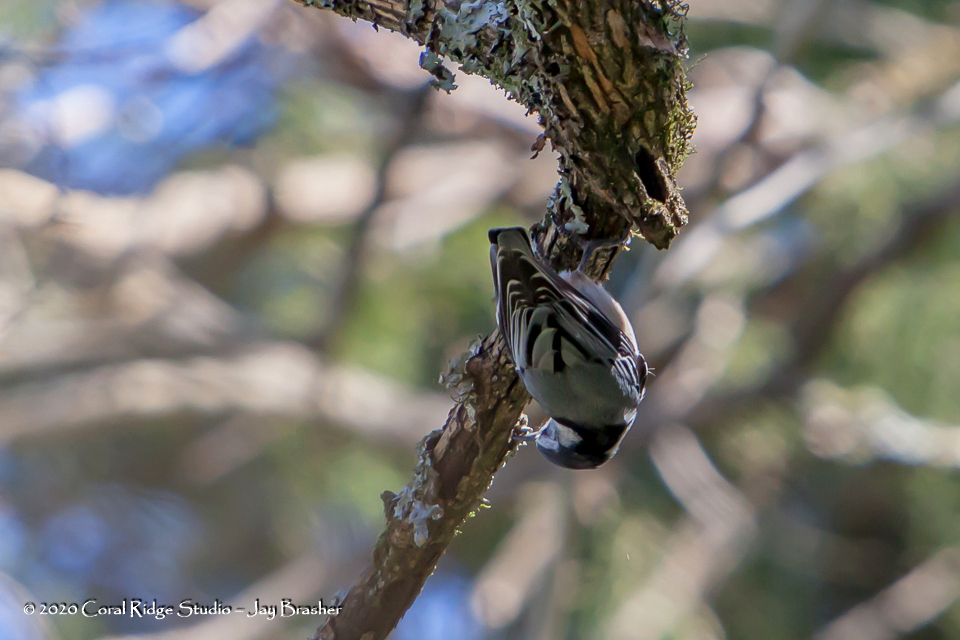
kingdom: Animalia
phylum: Chordata
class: Aves
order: Passeriformes
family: Sittidae
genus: Sitta
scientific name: Sitta carolinensis
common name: White-breasted nuthatch
